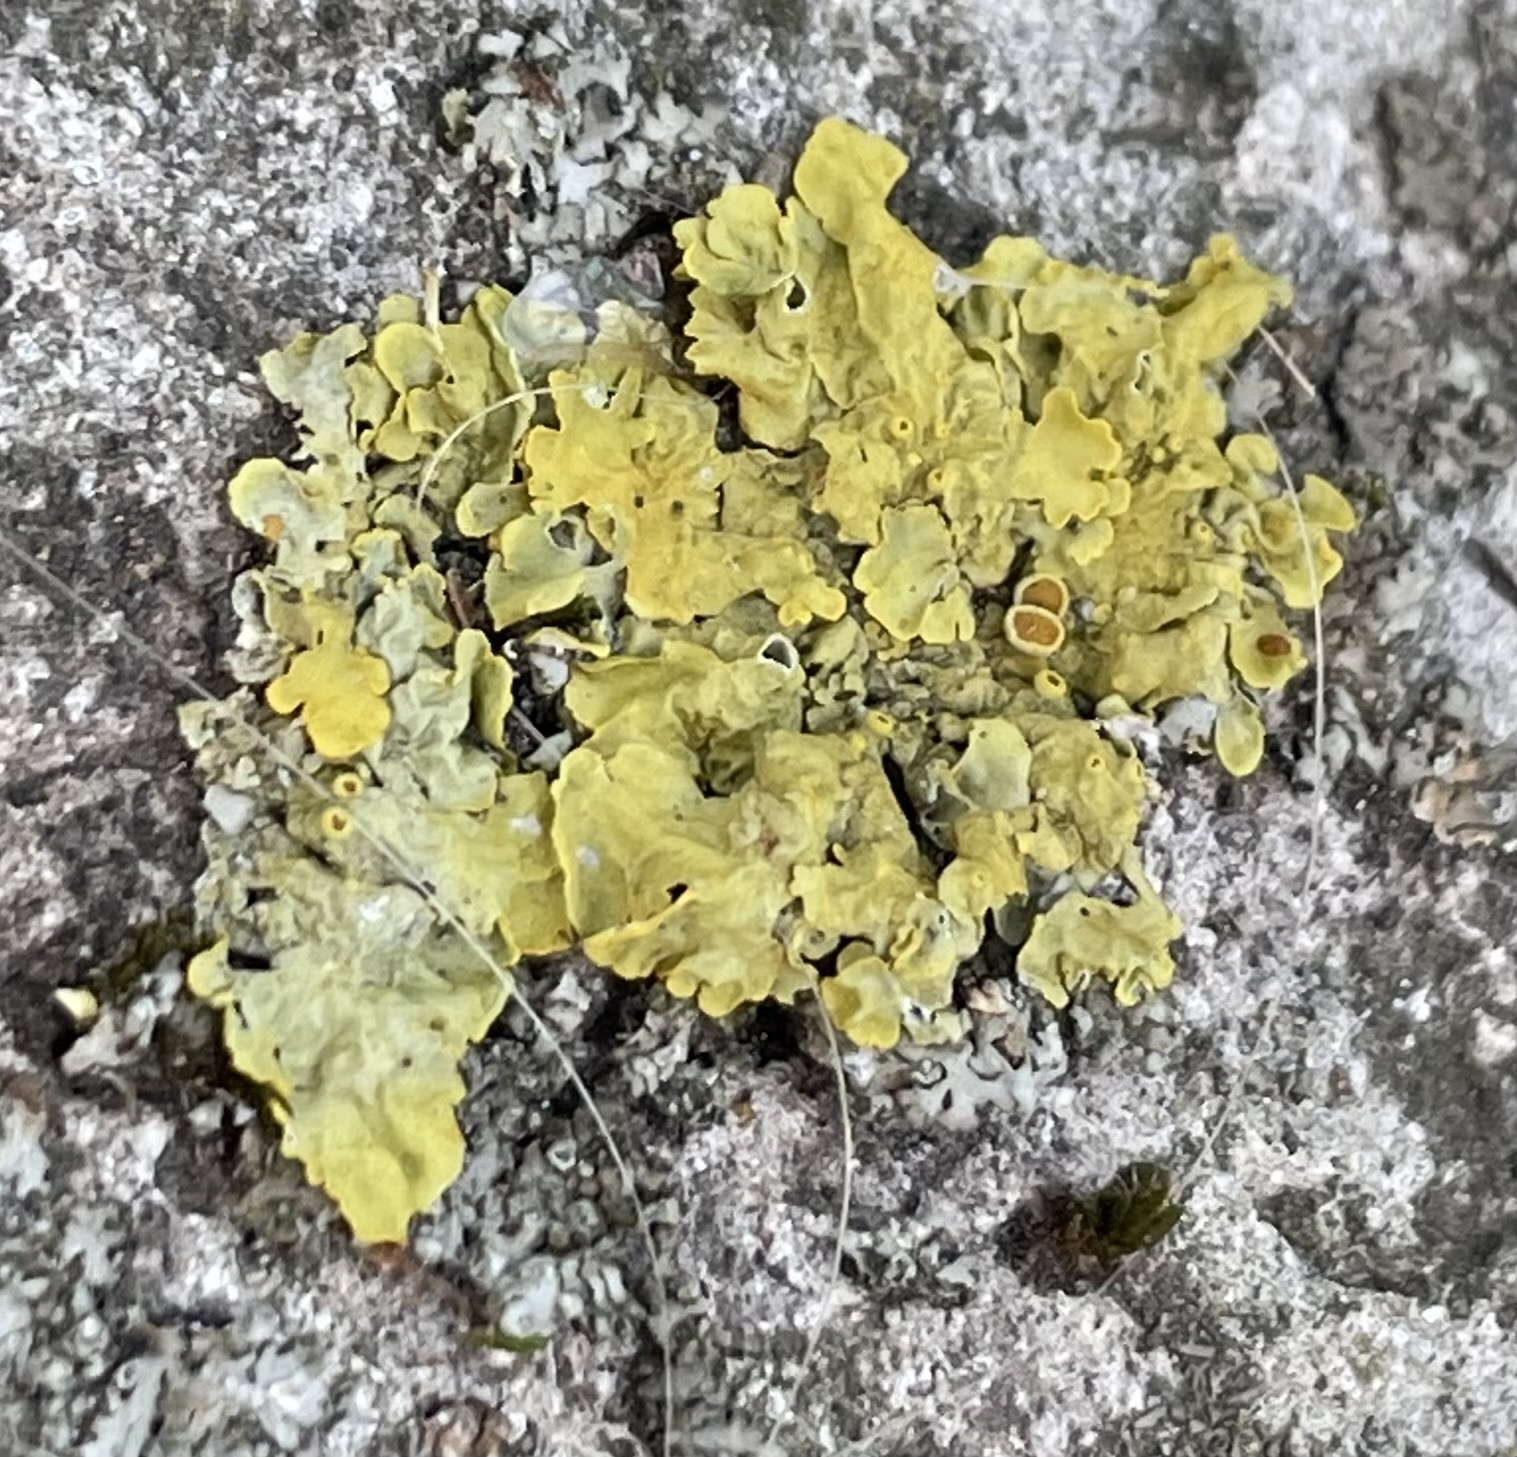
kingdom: Fungi
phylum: Ascomycota
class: Lecanoromycetes
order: Teloschistales
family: Teloschistaceae
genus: Xanthoria
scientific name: Xanthoria parietina
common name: Common orange lichen
